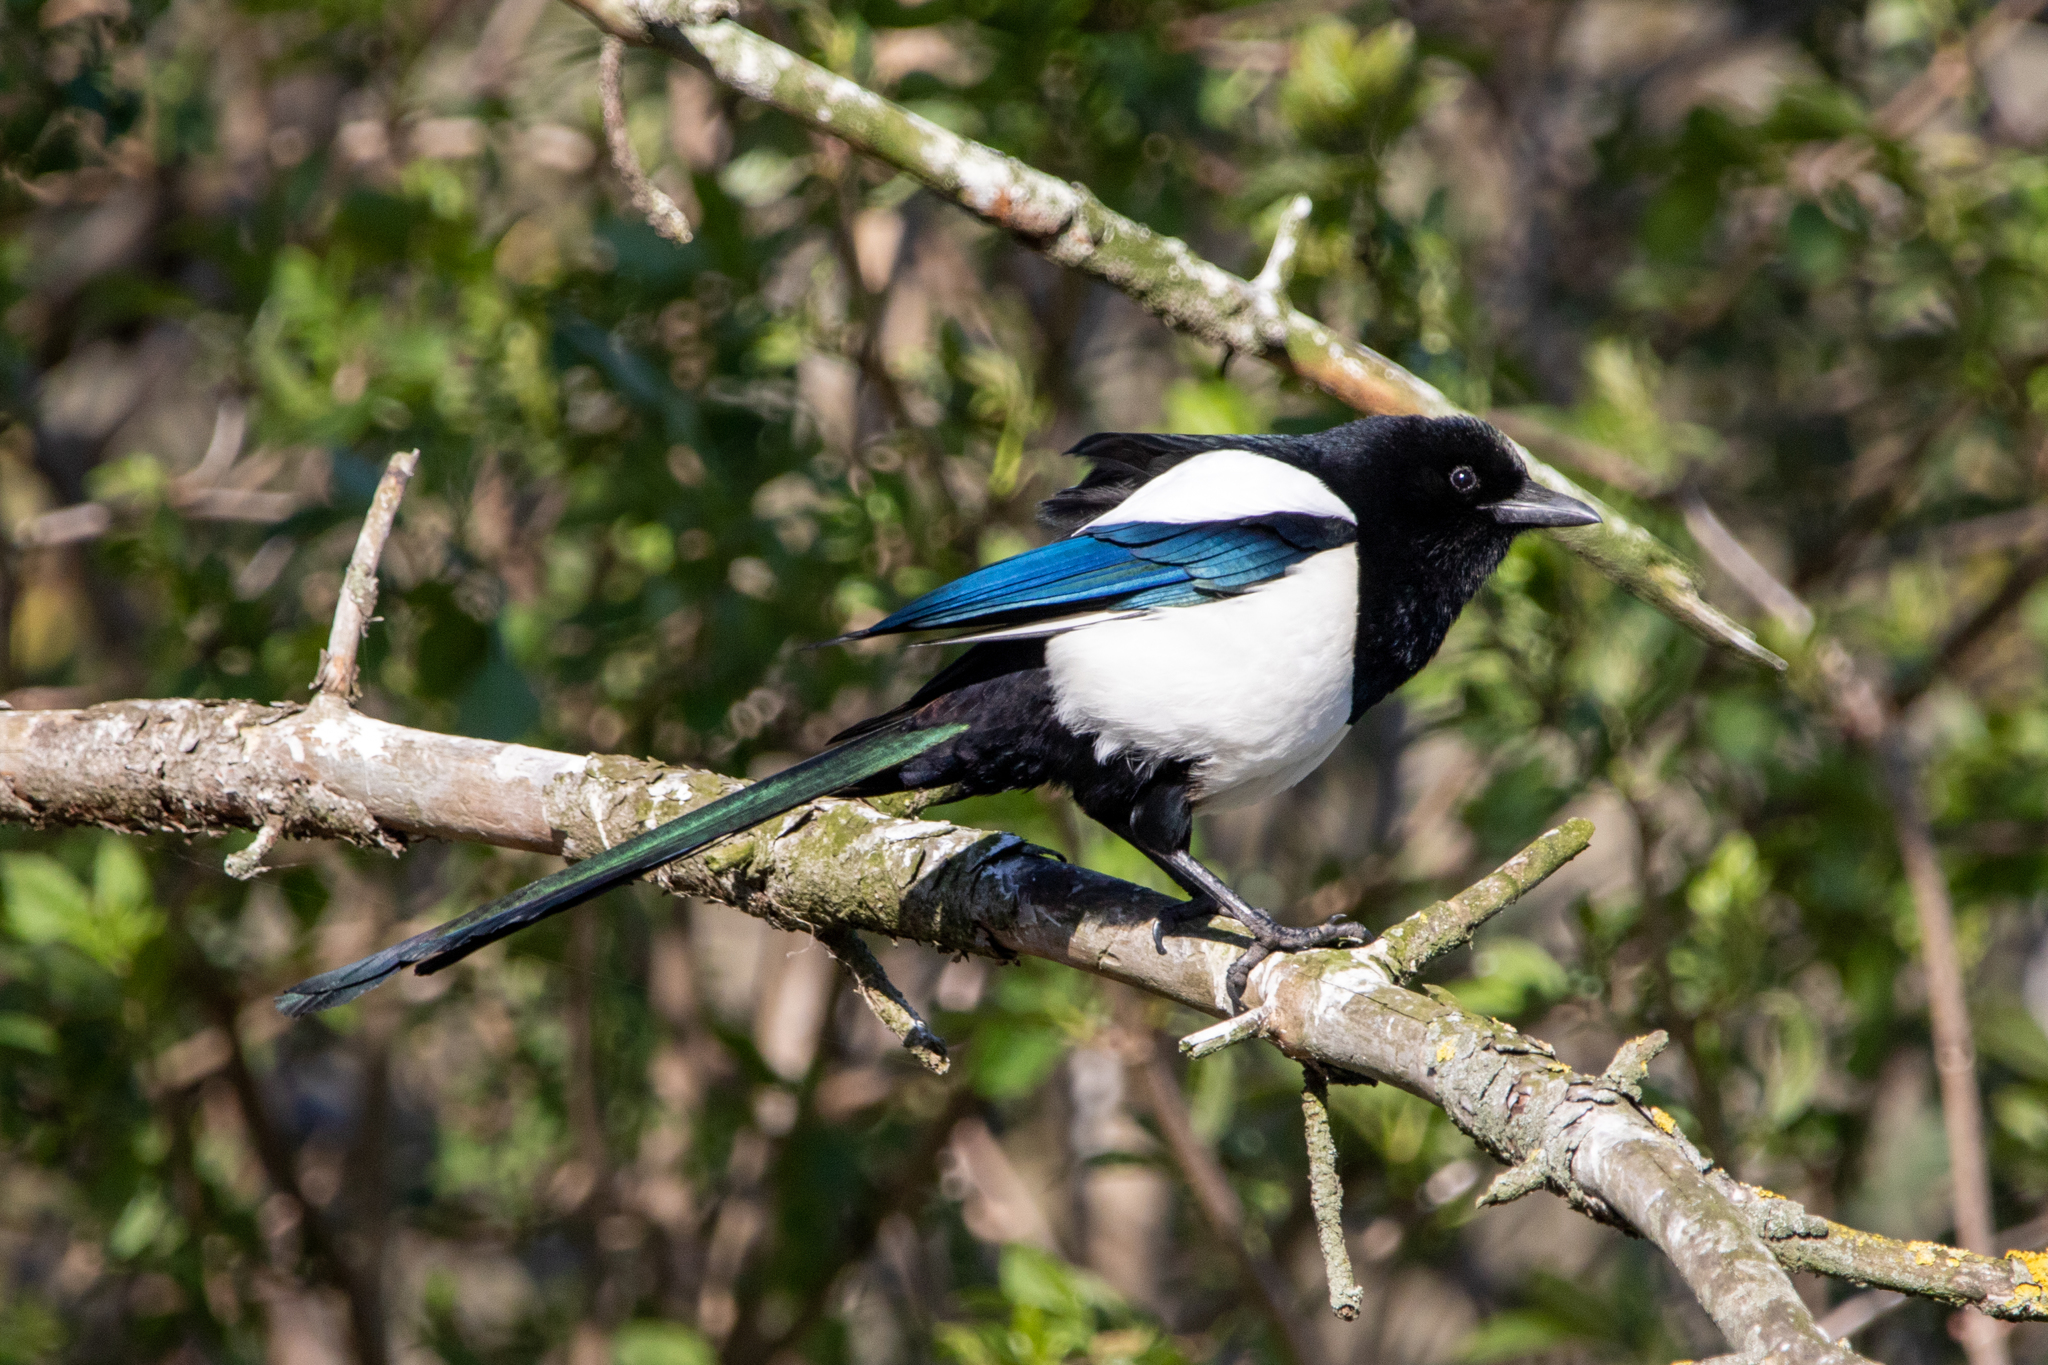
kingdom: Animalia
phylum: Chordata
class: Aves
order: Passeriformes
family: Corvidae
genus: Pica
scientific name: Pica pica
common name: Eurasian magpie
